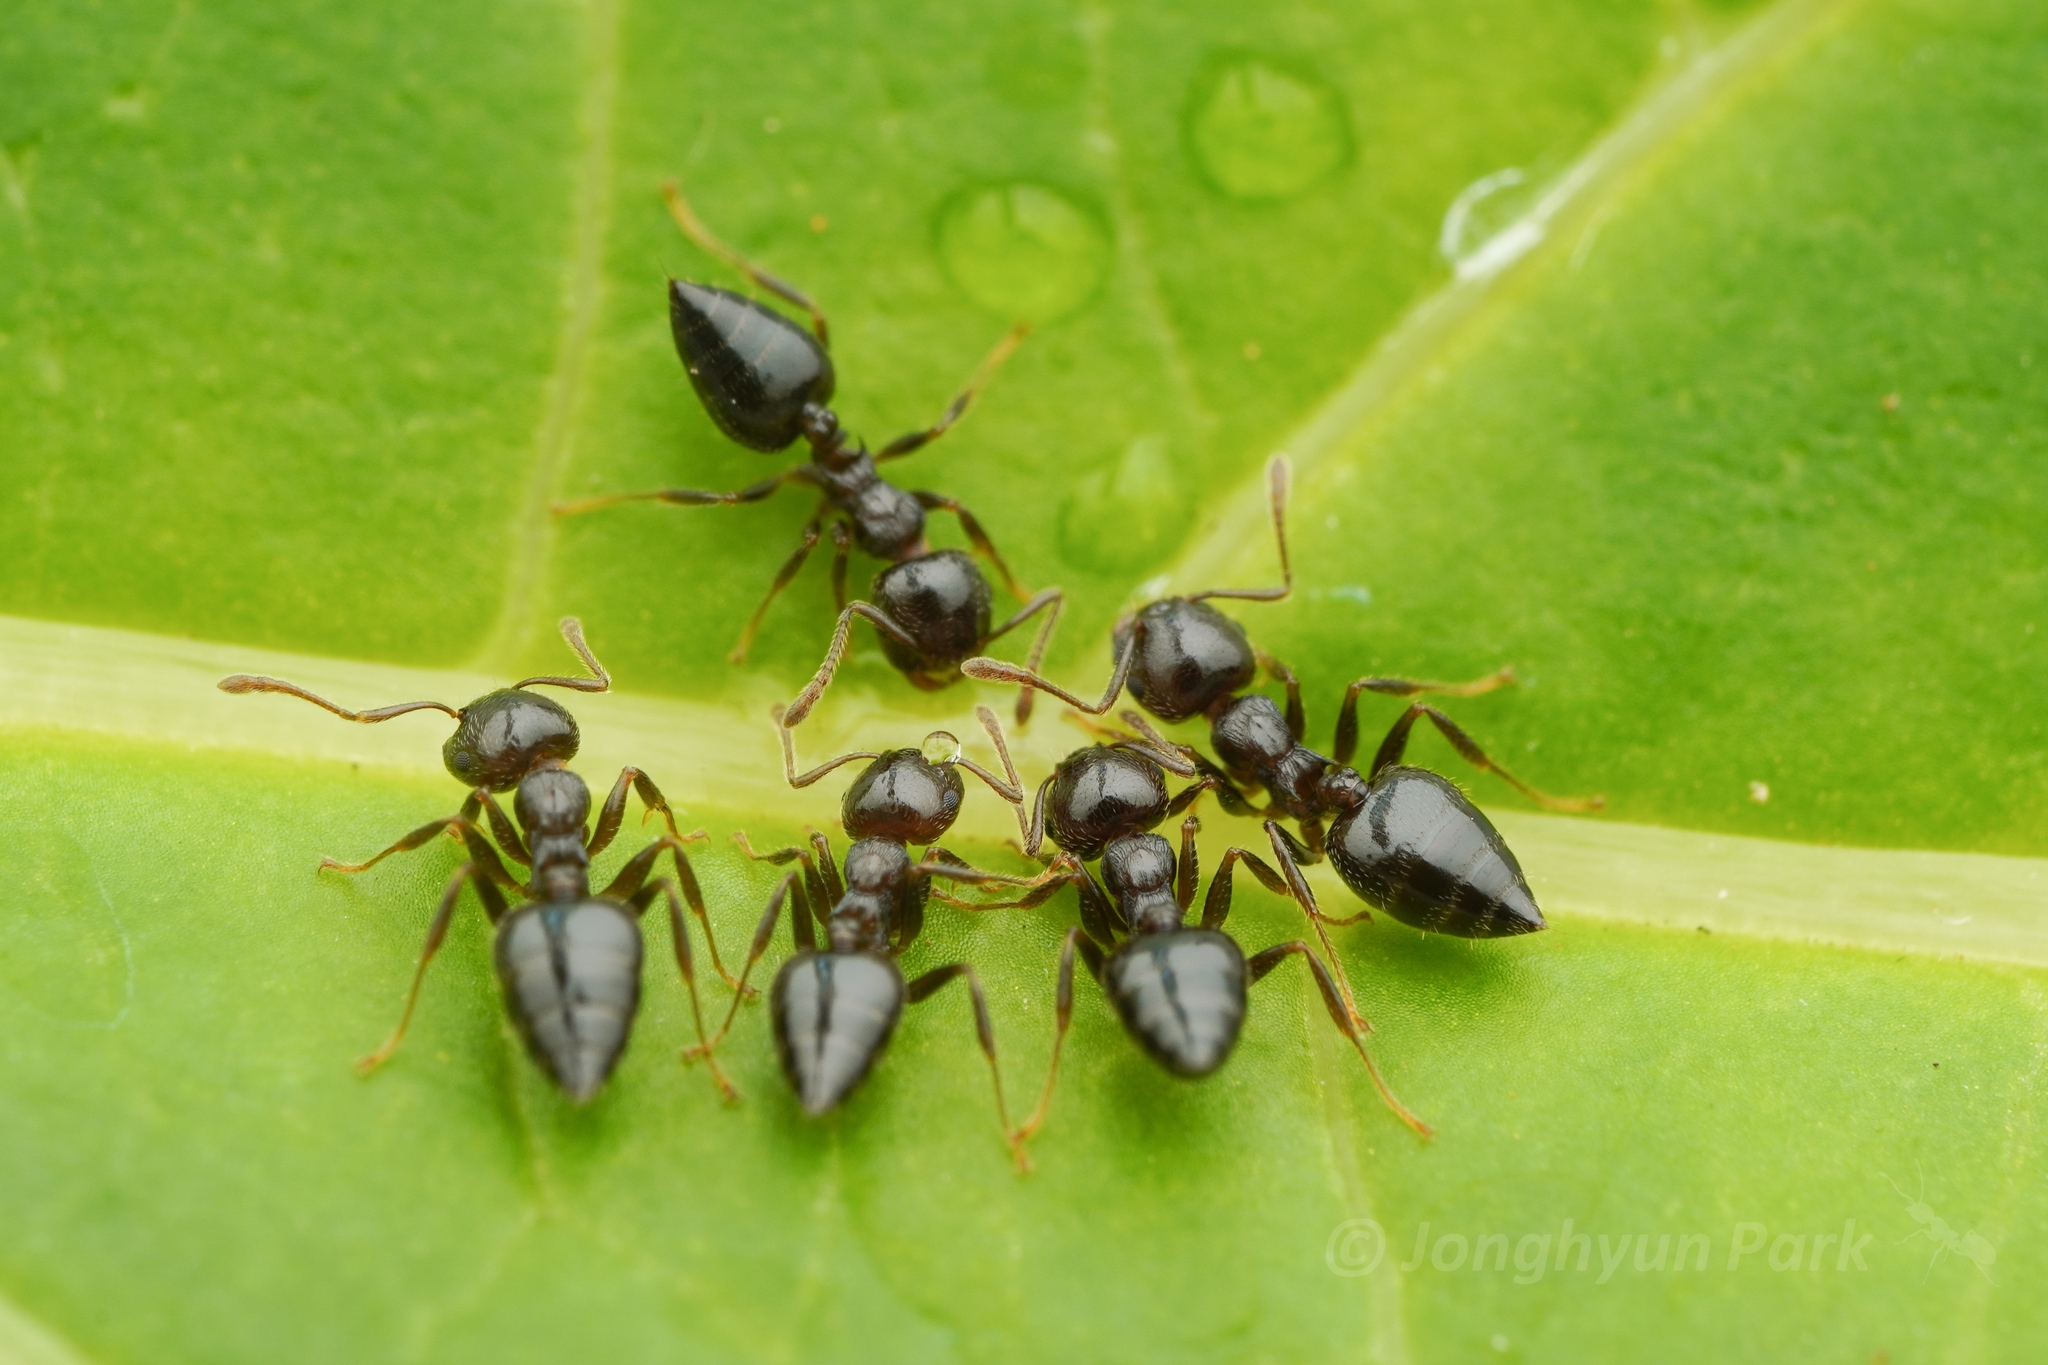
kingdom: Animalia
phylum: Arthropoda
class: Insecta
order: Hymenoptera
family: Formicidae
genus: Crematogaster
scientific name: Crematogaster teranishii
